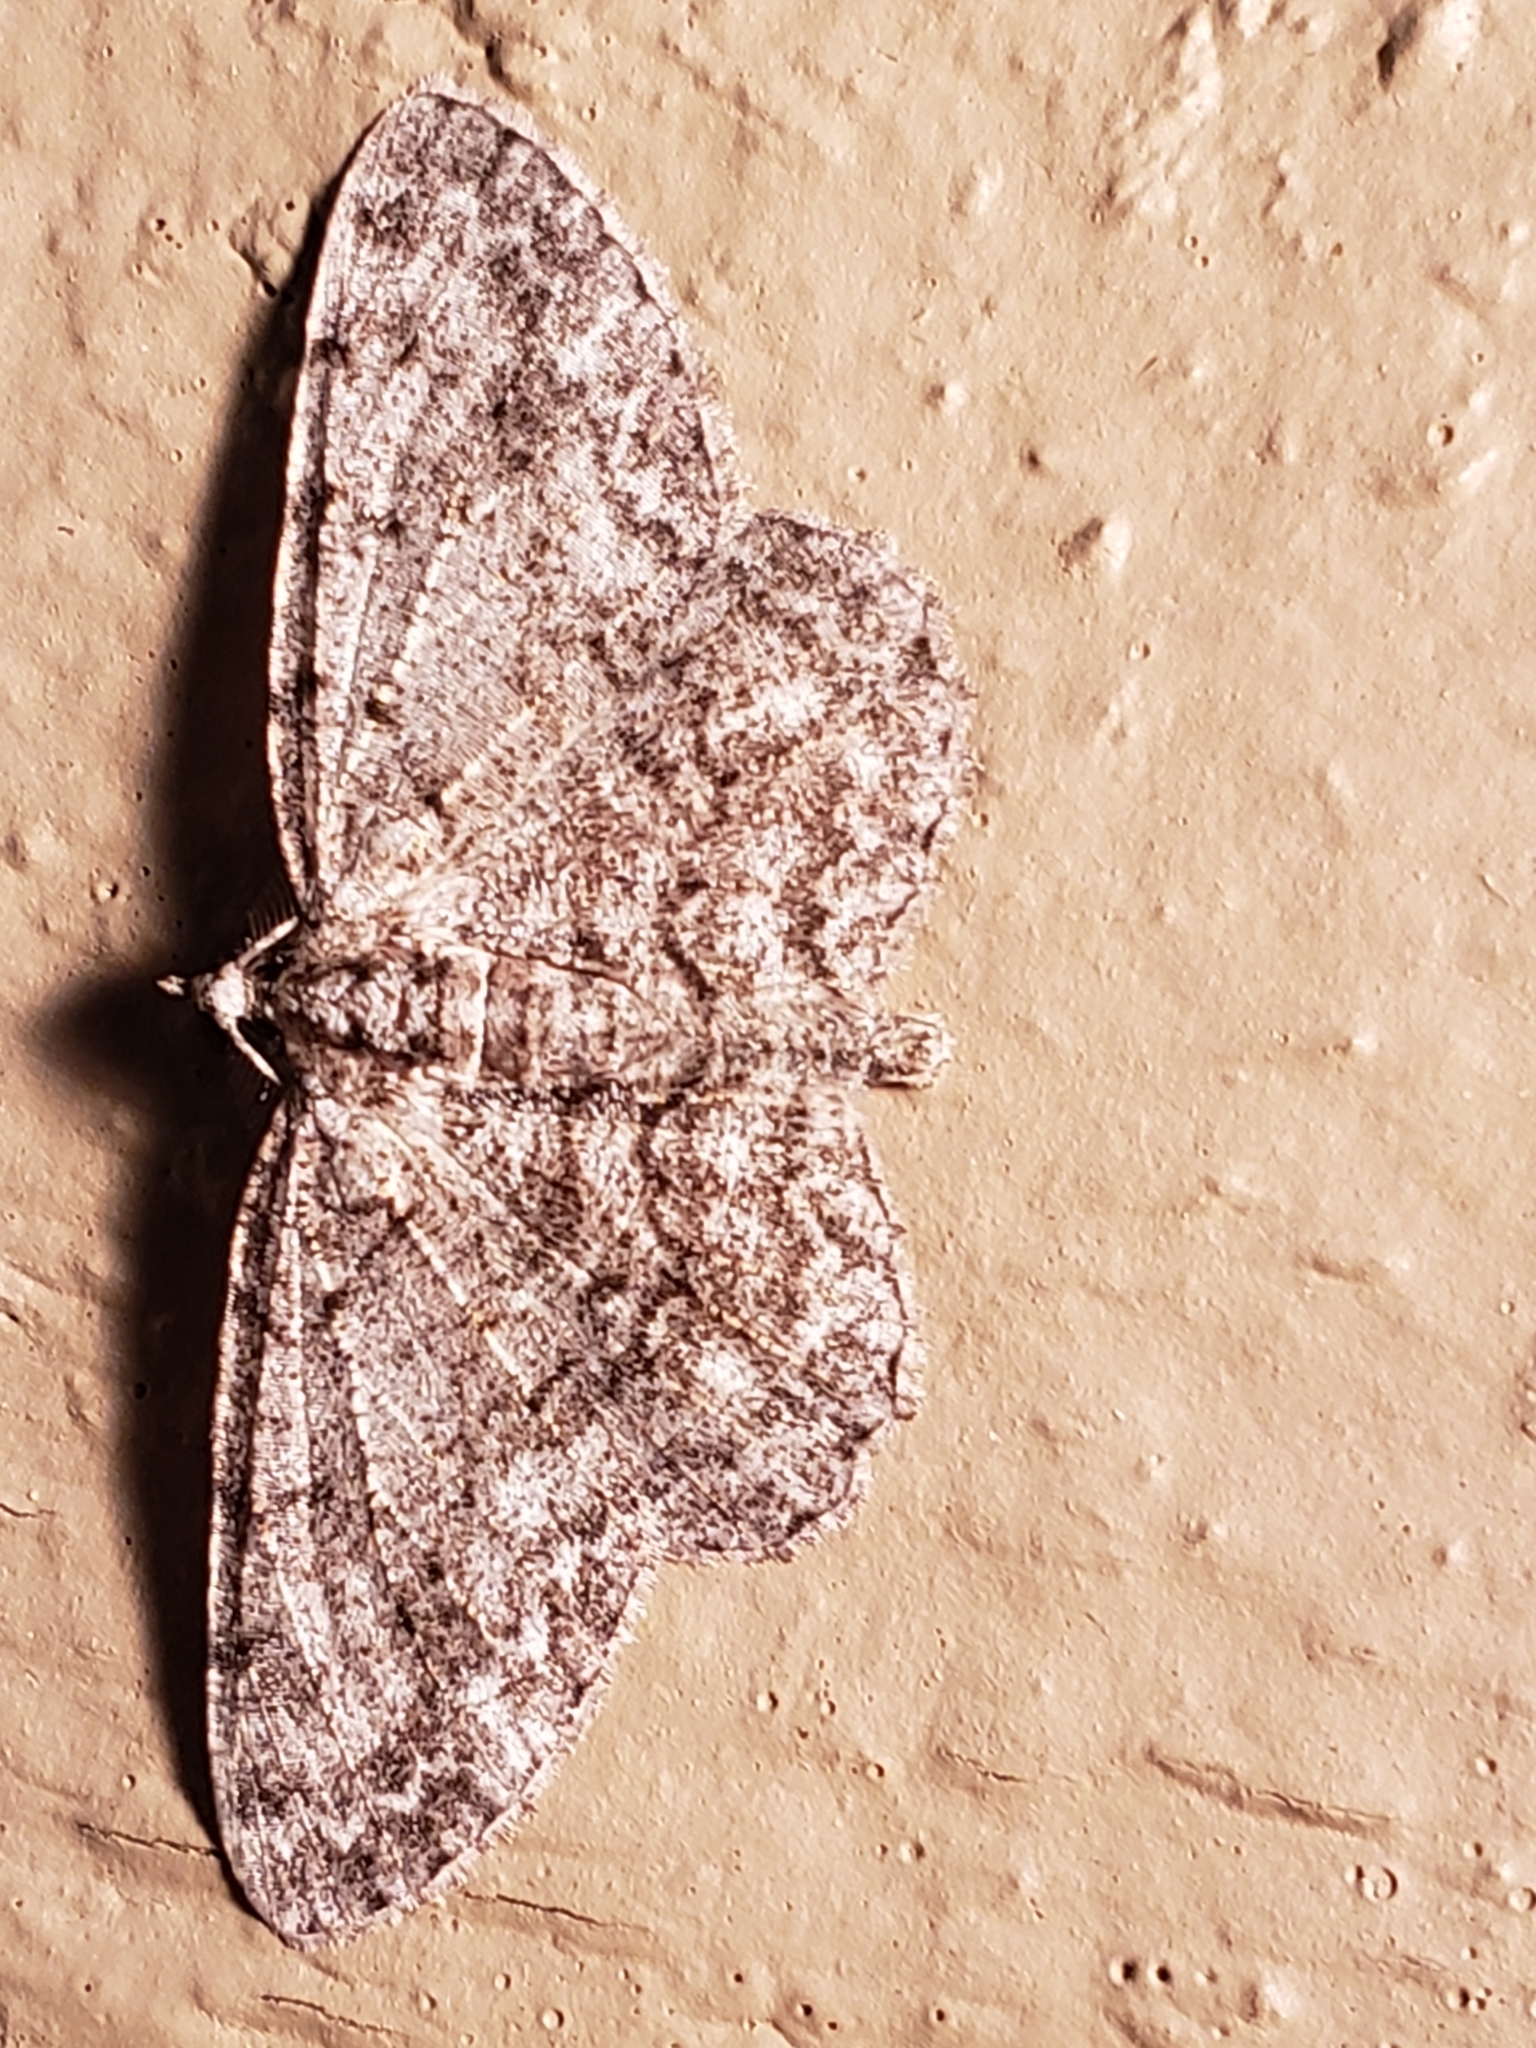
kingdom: Animalia
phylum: Arthropoda
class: Insecta
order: Lepidoptera
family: Geometridae
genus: Protoboarmia
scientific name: Protoboarmia porcelaria
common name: Porcelain gray
